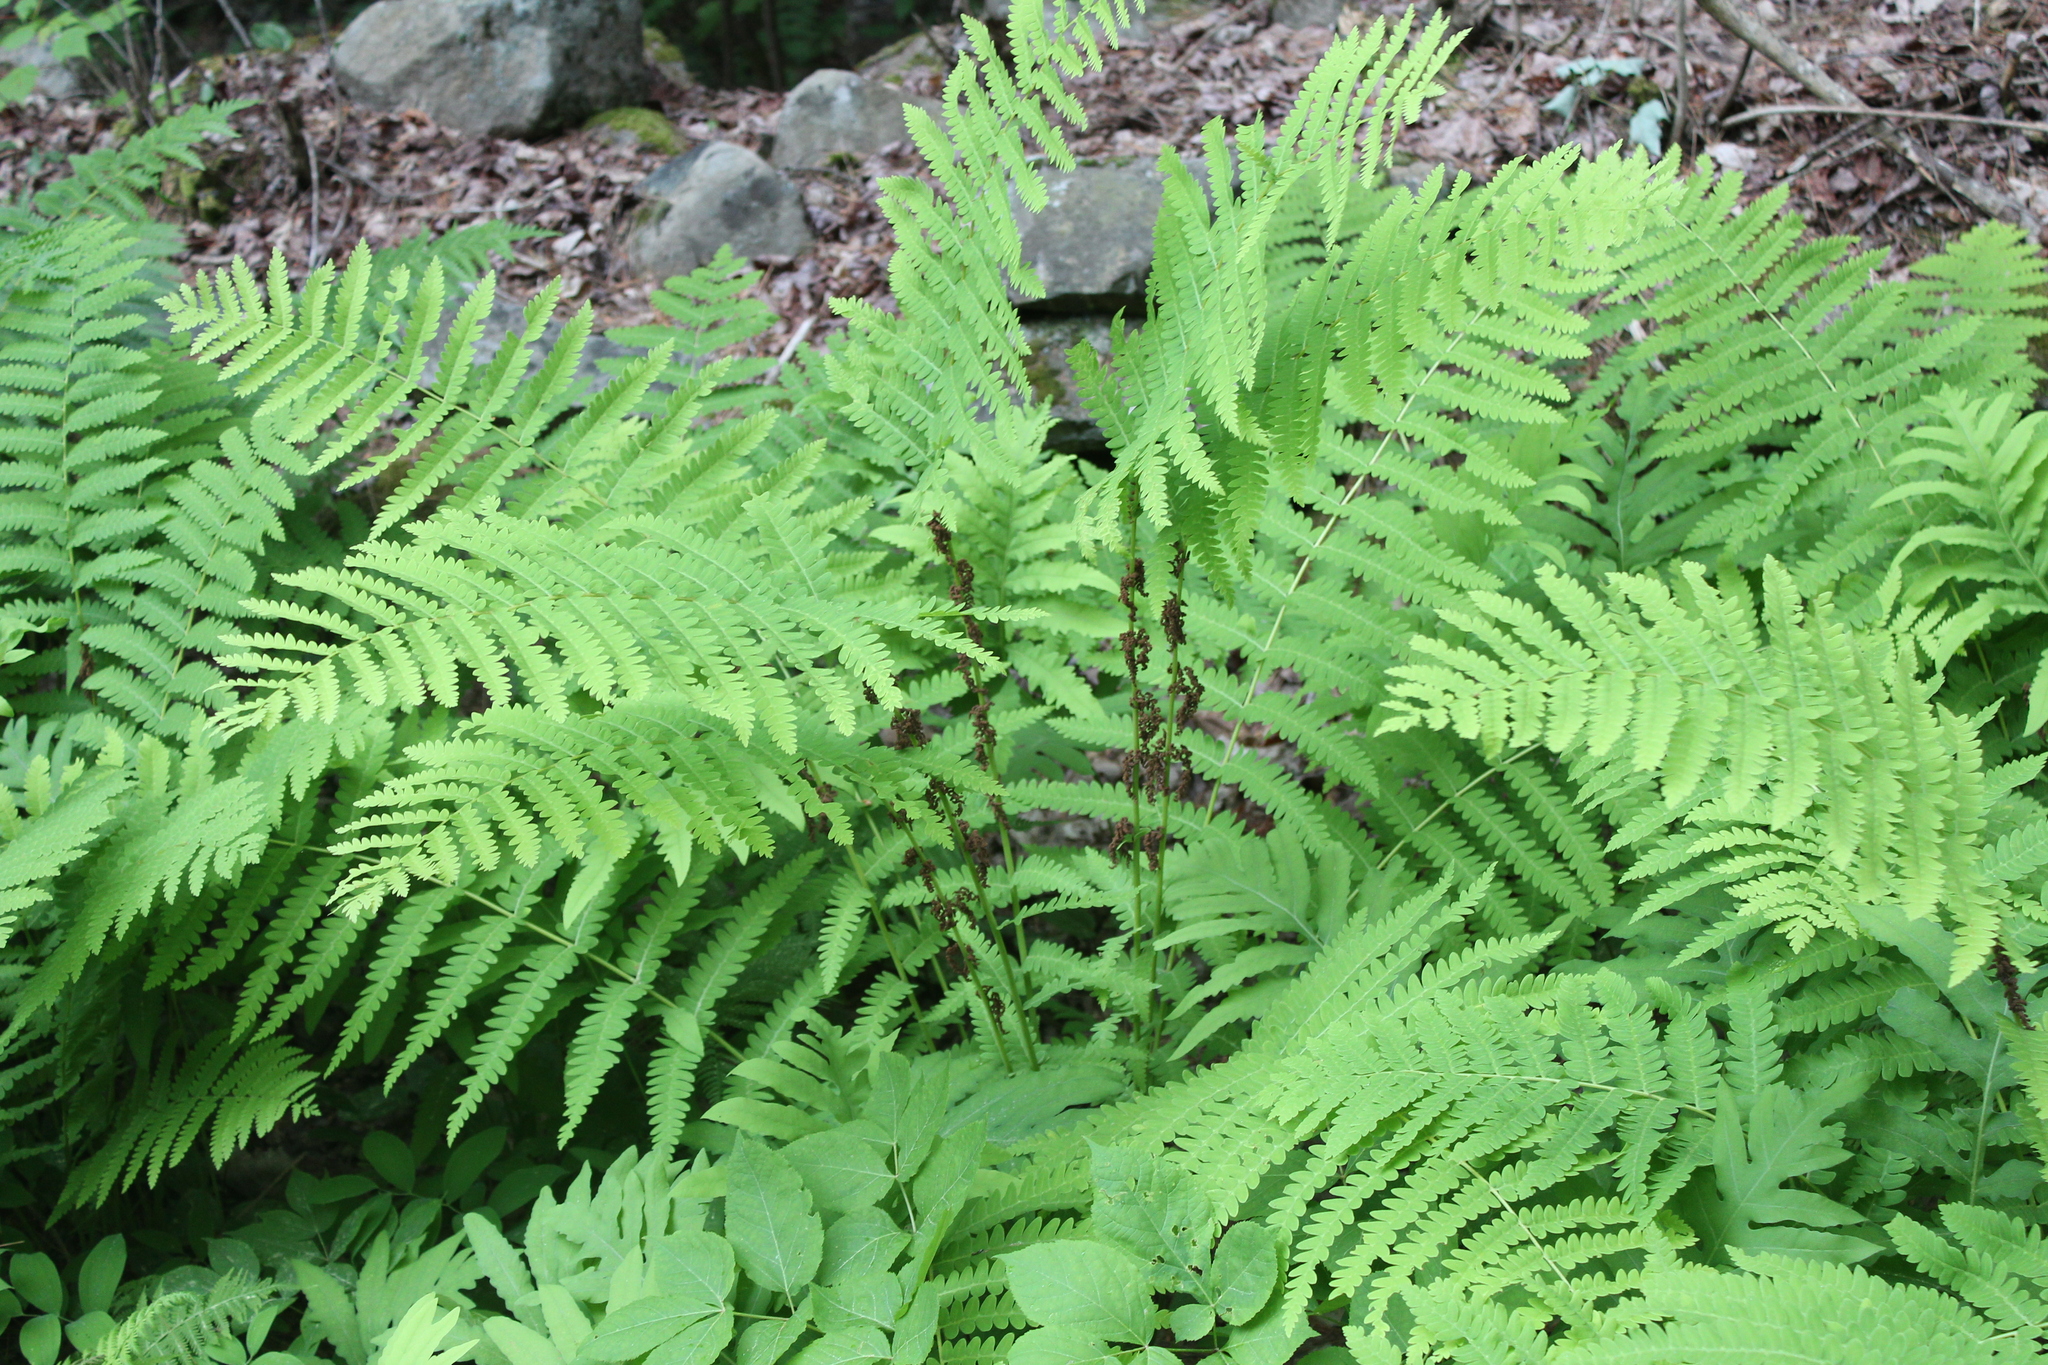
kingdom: Plantae
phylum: Tracheophyta
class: Polypodiopsida
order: Osmundales
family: Osmundaceae
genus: Claytosmunda
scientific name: Claytosmunda claytoniana
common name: Clayton's fern
